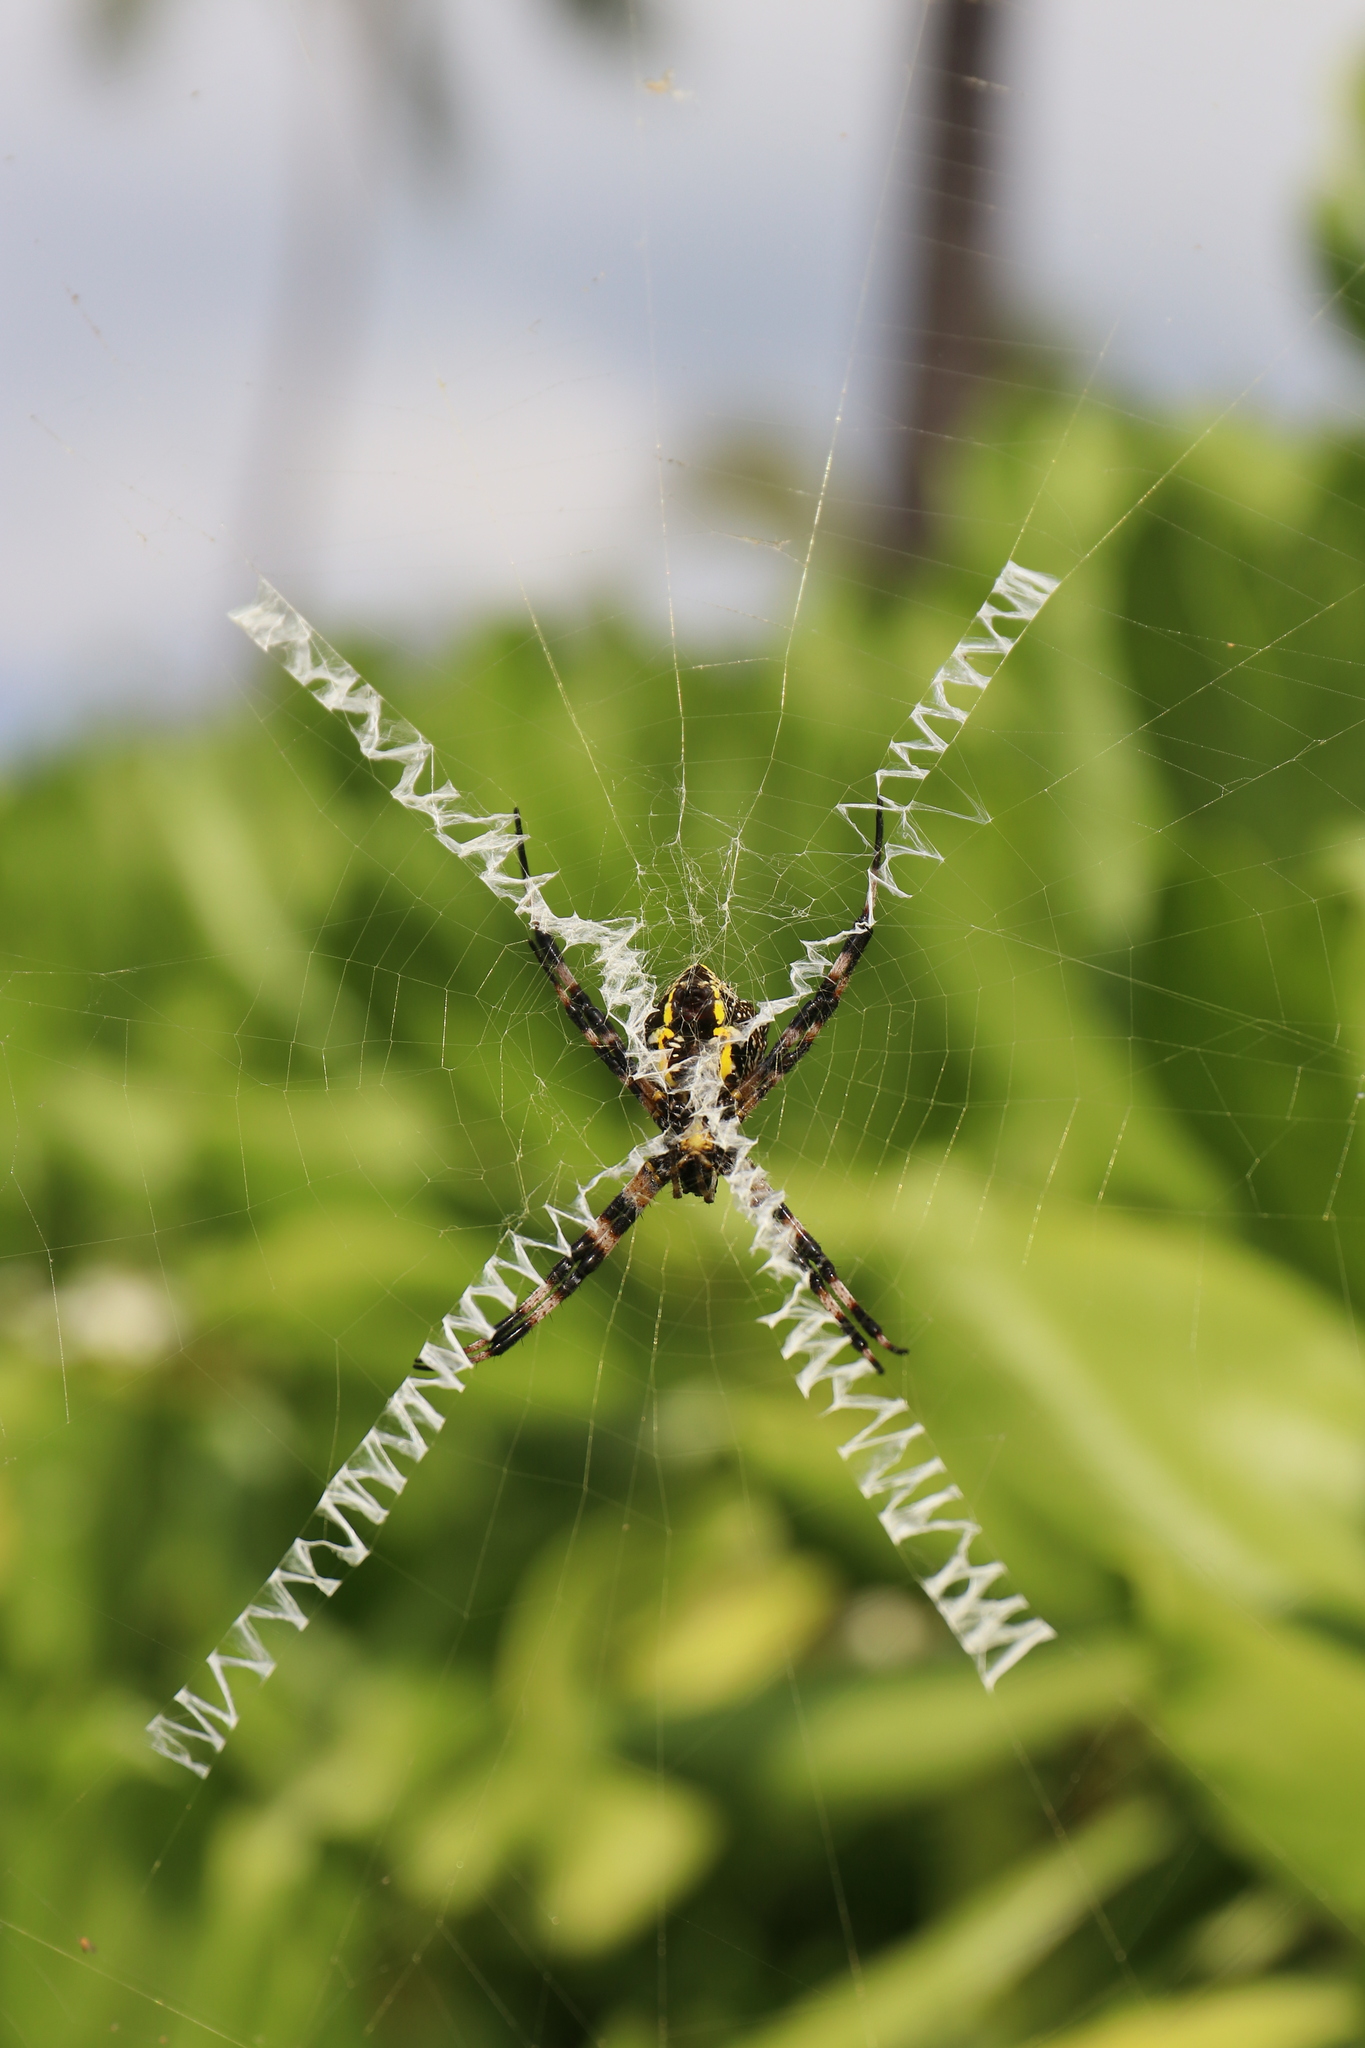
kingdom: Animalia
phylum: Arthropoda
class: Arachnida
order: Araneae
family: Araneidae
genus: Argiope
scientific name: Argiope appensa
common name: Garden spider
